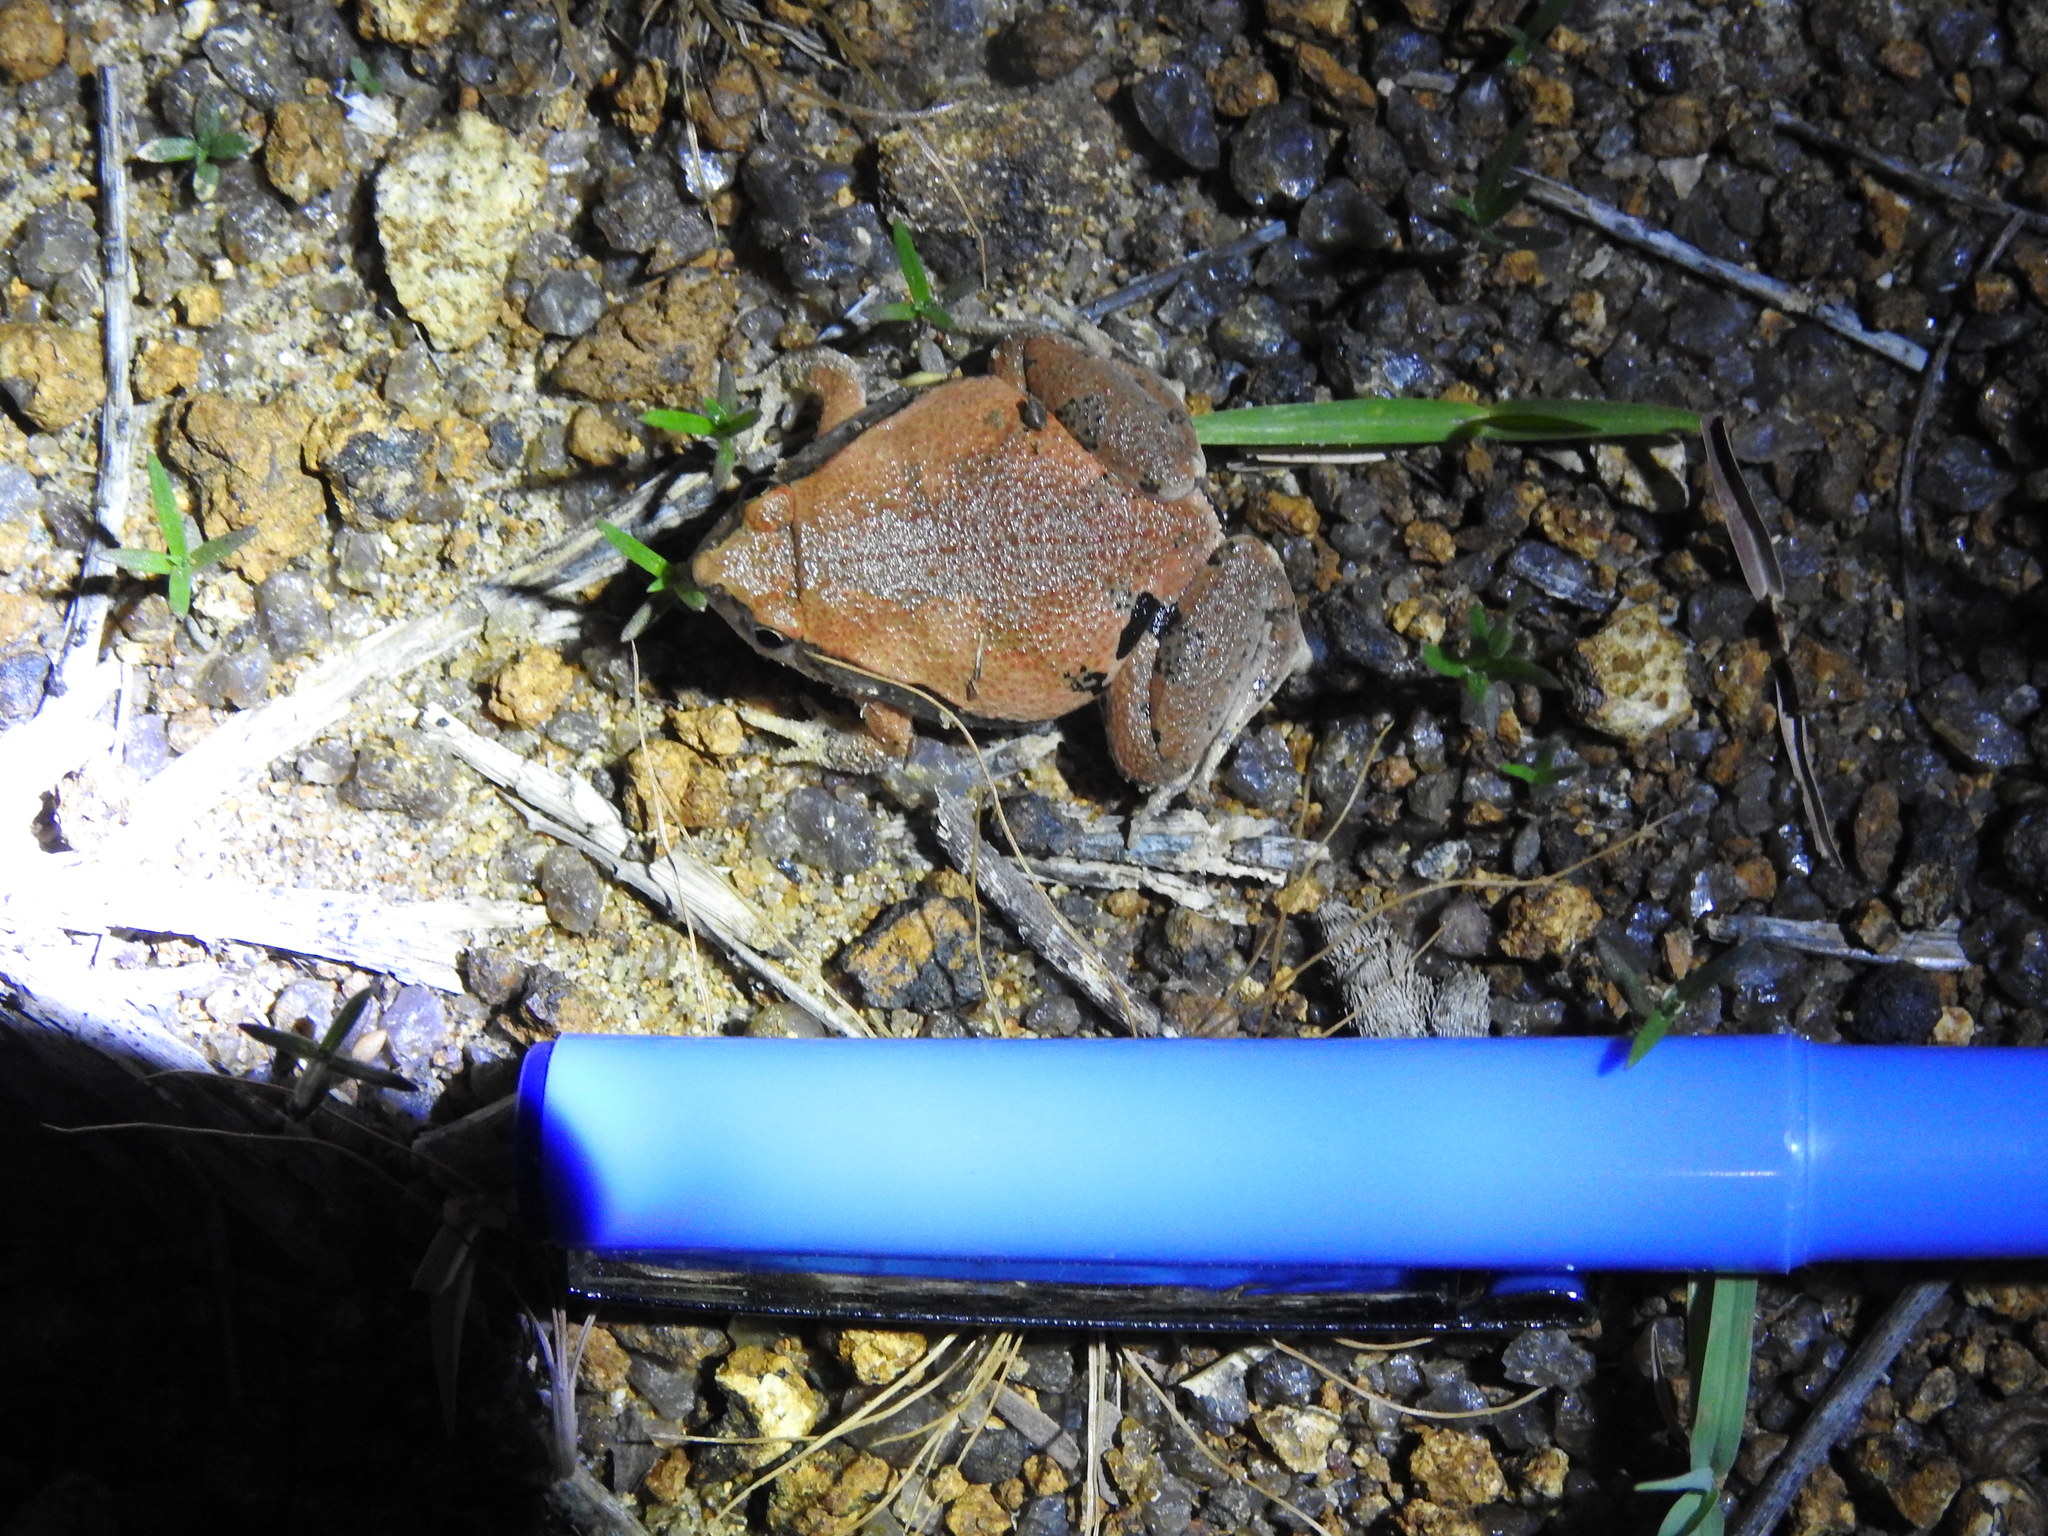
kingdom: Animalia
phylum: Chordata
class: Amphibia
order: Anura
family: Microhylidae
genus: Microhyla
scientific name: Microhyla rubra
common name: Guangdong rice frog
